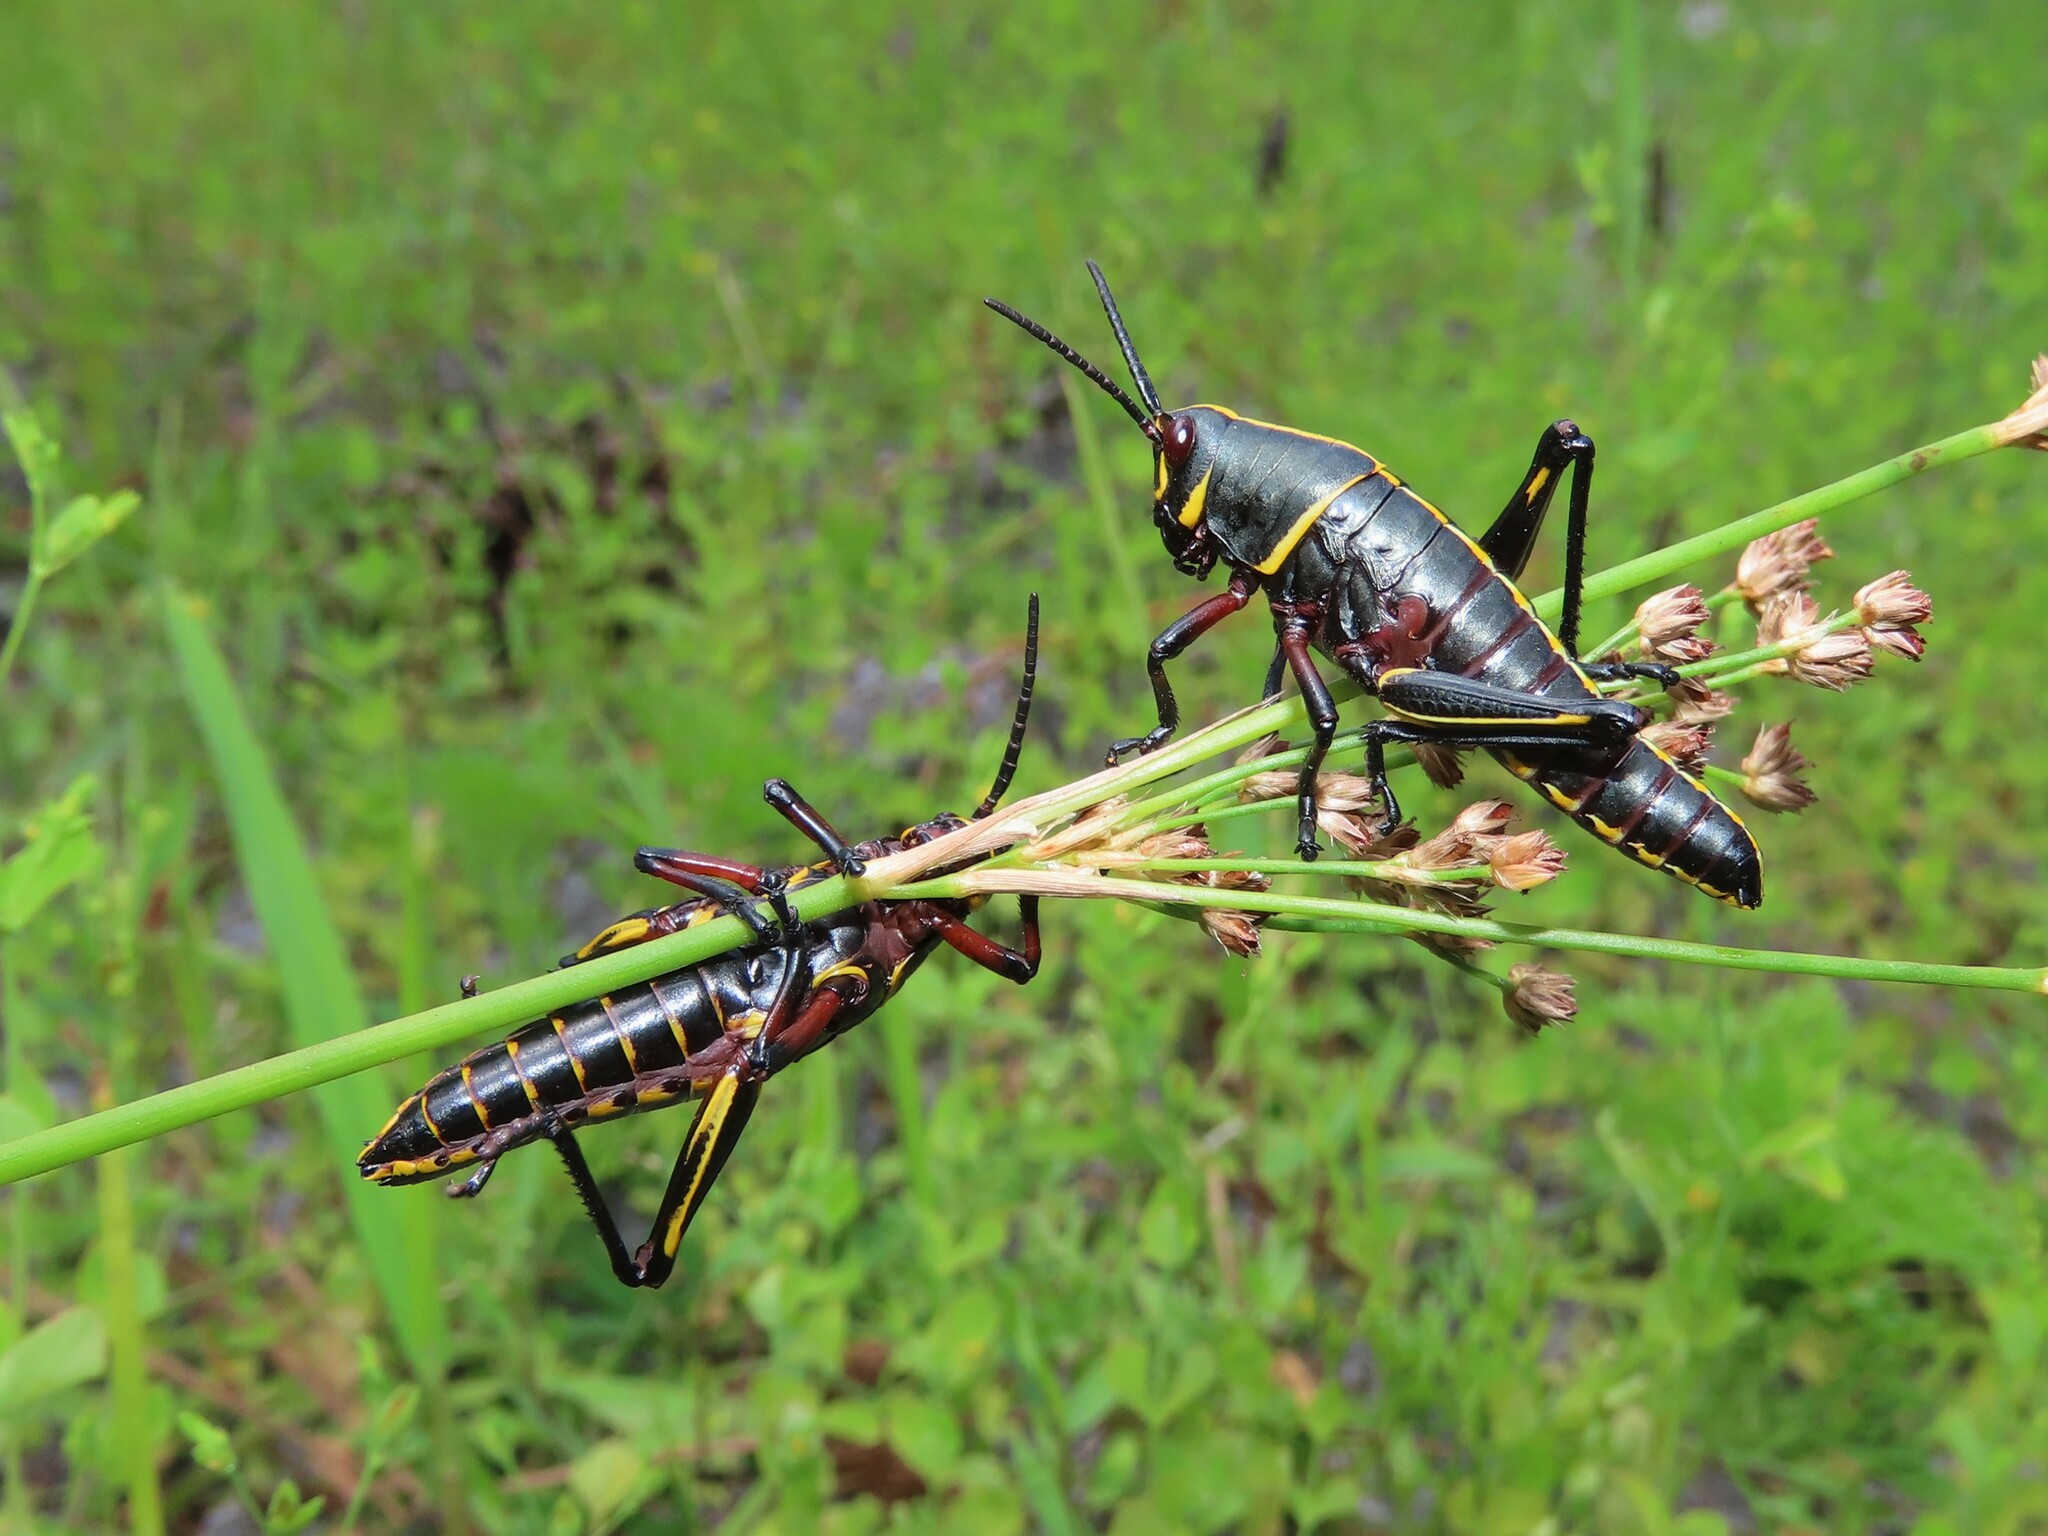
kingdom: Animalia
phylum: Arthropoda
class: Insecta
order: Orthoptera
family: Romaleidae
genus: Romalea
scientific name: Romalea microptera
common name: Eastern lubber grasshopper
